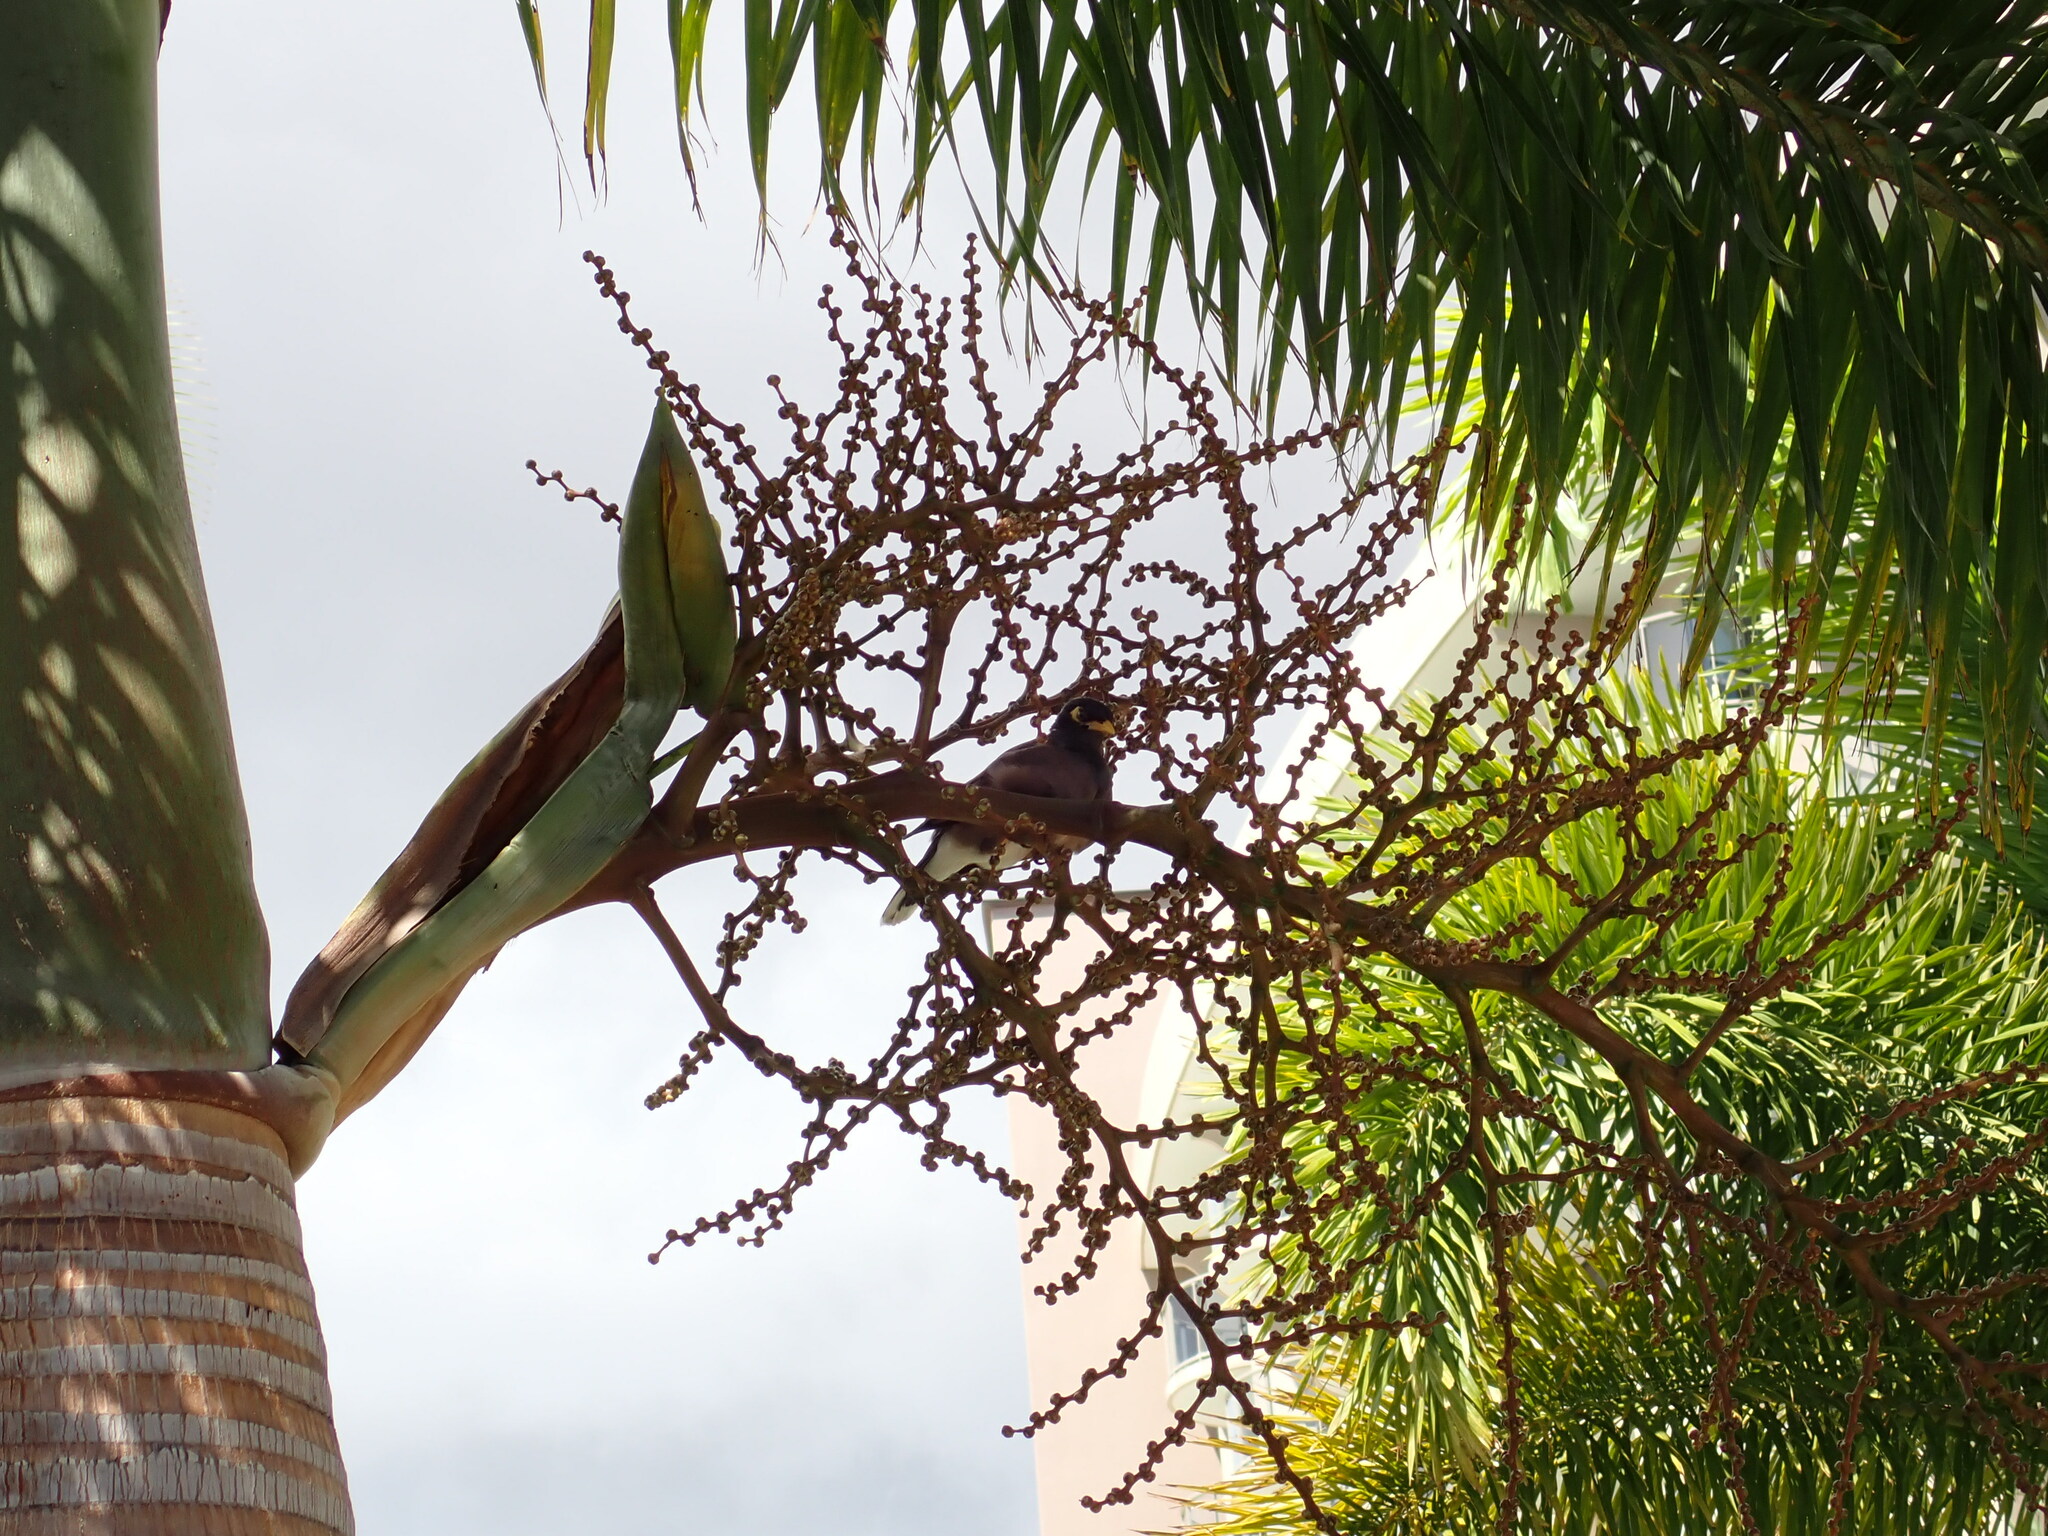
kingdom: Animalia
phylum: Chordata
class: Aves
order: Passeriformes
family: Sturnidae
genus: Acridotheres
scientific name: Acridotheres tristis
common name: Common myna
